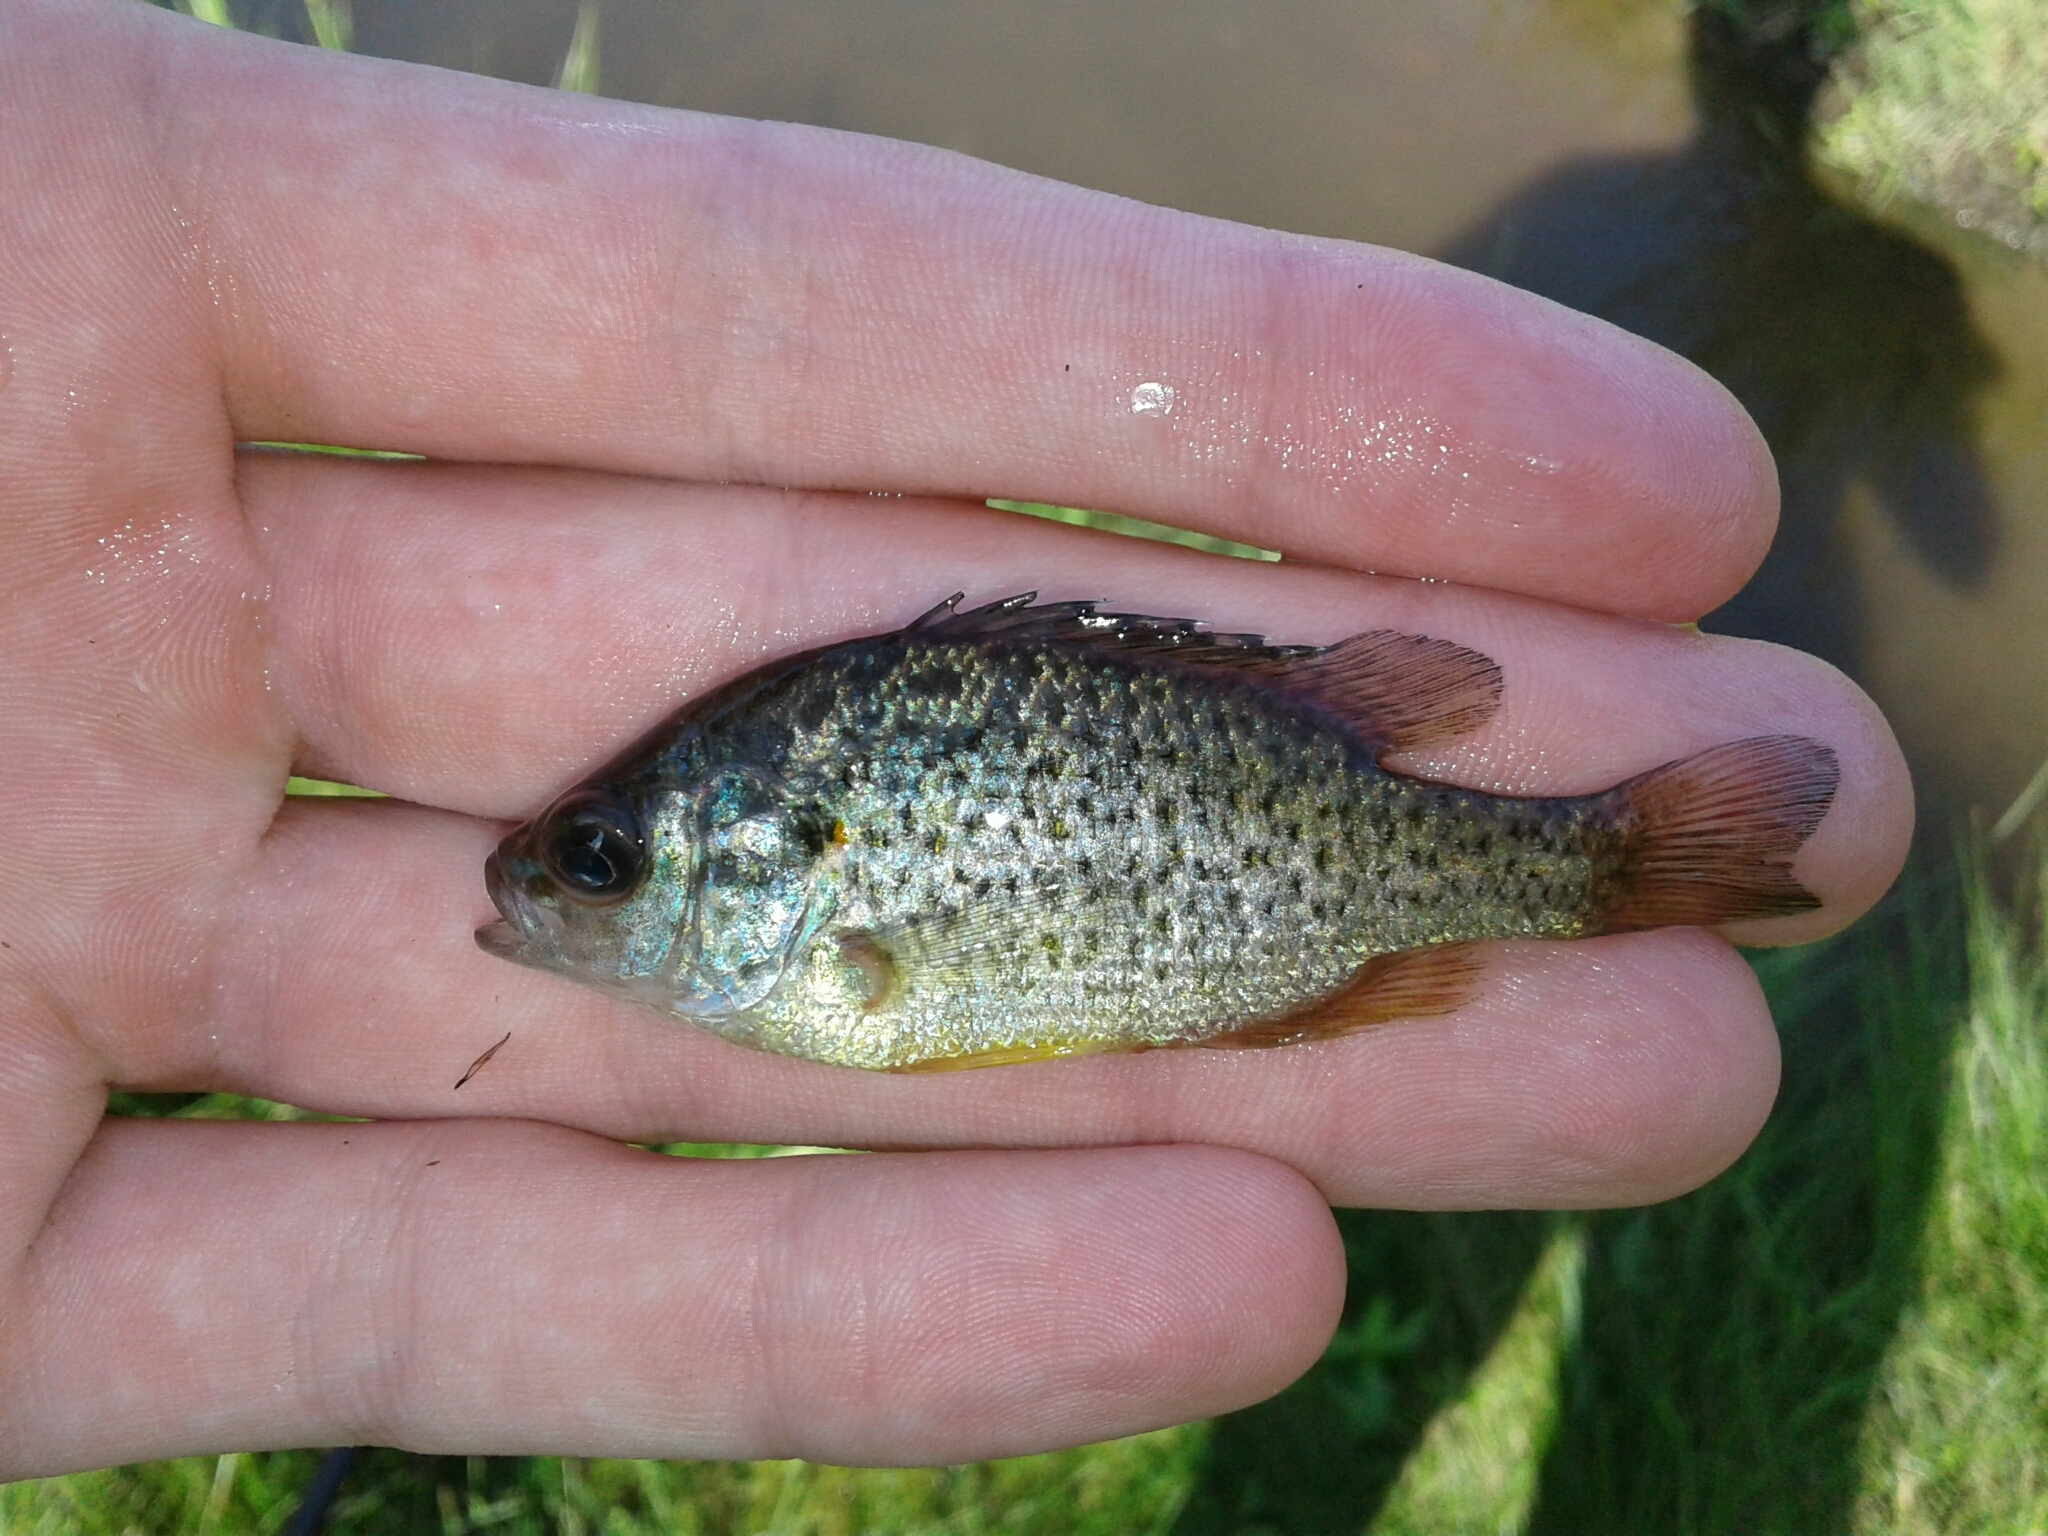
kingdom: Animalia
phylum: Chordata
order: Perciformes
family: Centrarchidae
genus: Lepomis
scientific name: Lepomis gibbosus
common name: Pumpkinseed
